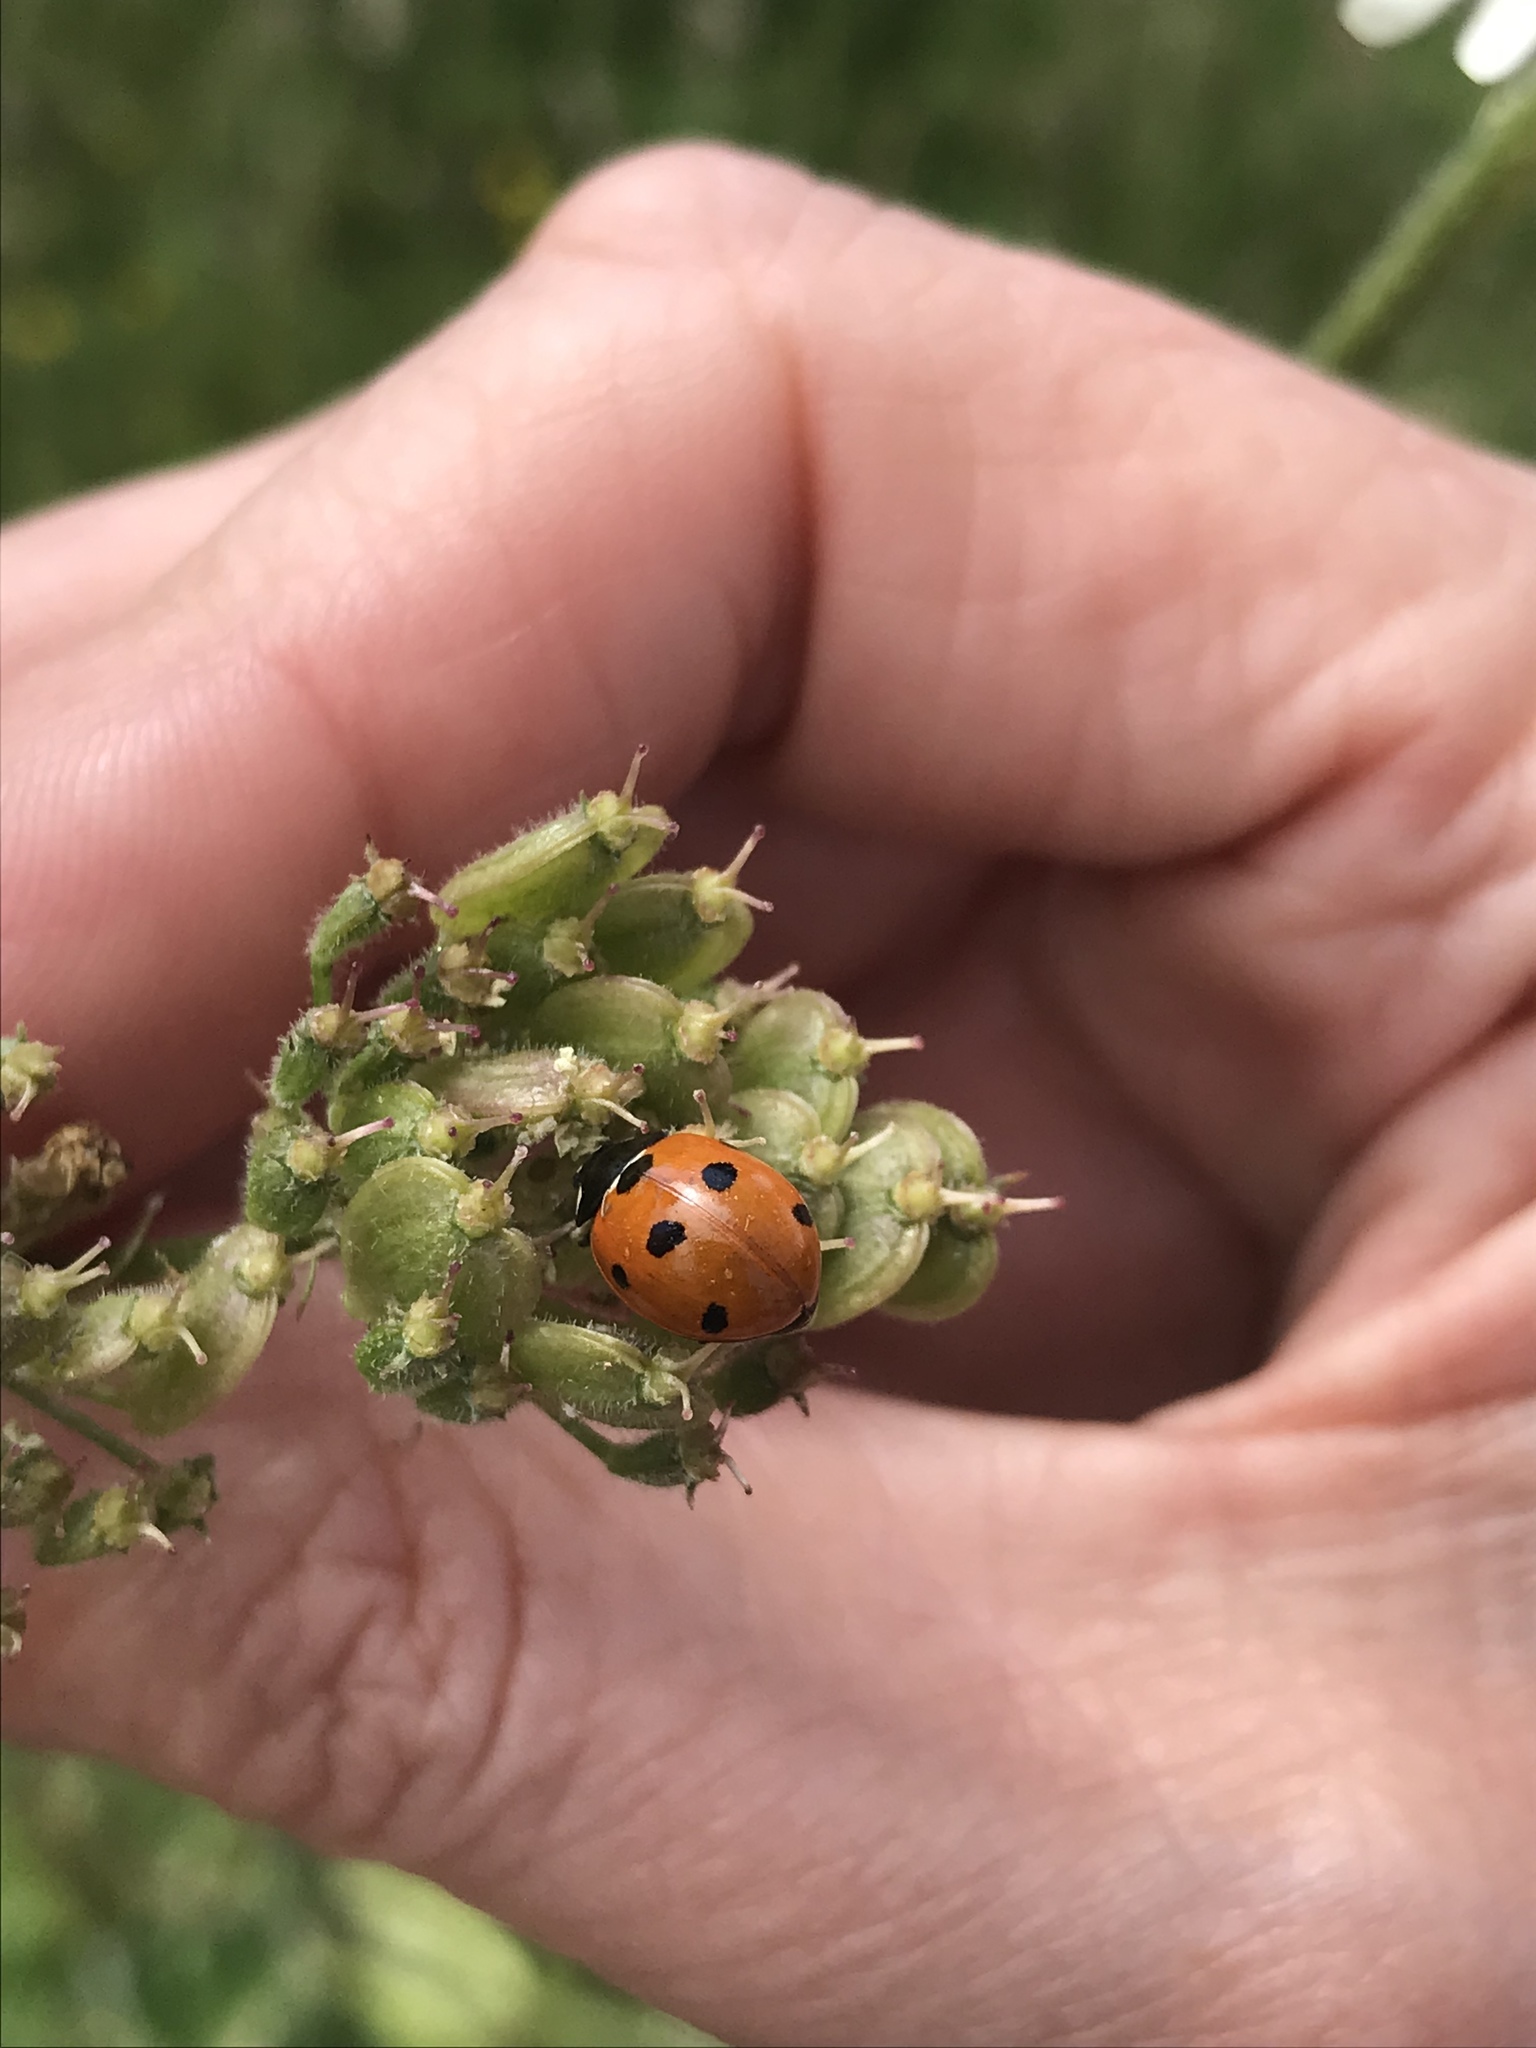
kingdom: Animalia
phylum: Arthropoda
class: Insecta
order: Coleoptera
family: Coccinellidae
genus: Coccinella
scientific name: Coccinella septempunctata
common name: Sevenspotted lady beetle
